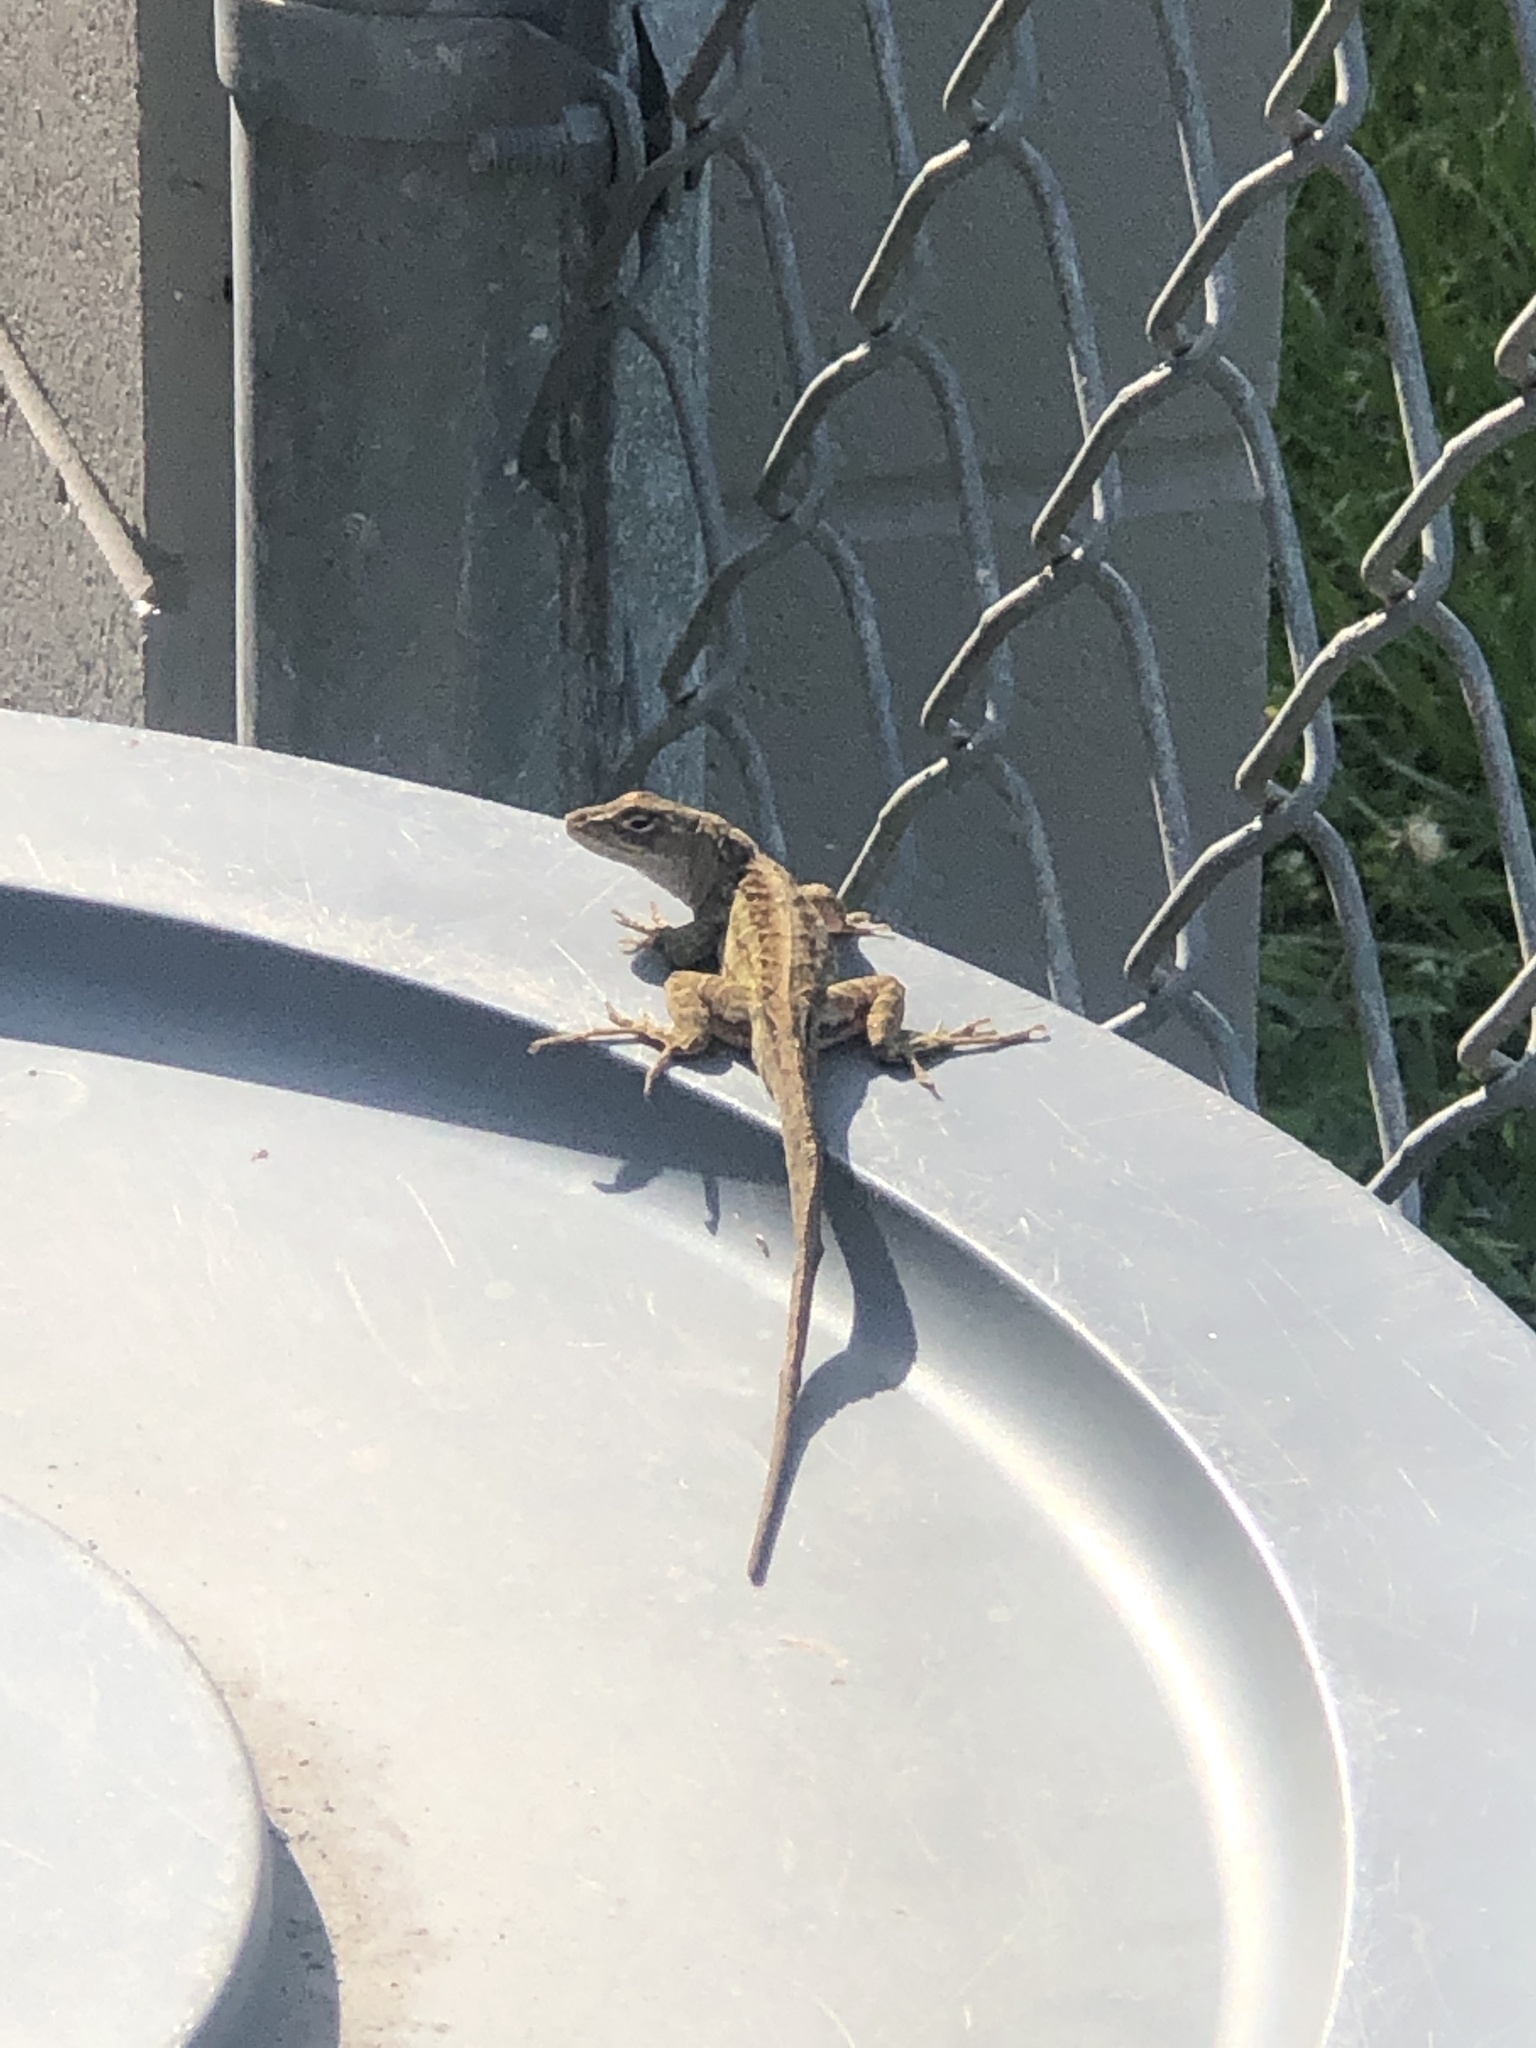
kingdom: Animalia
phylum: Chordata
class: Squamata
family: Dactyloidae
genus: Anolis
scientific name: Anolis sagrei
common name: Brown anole
